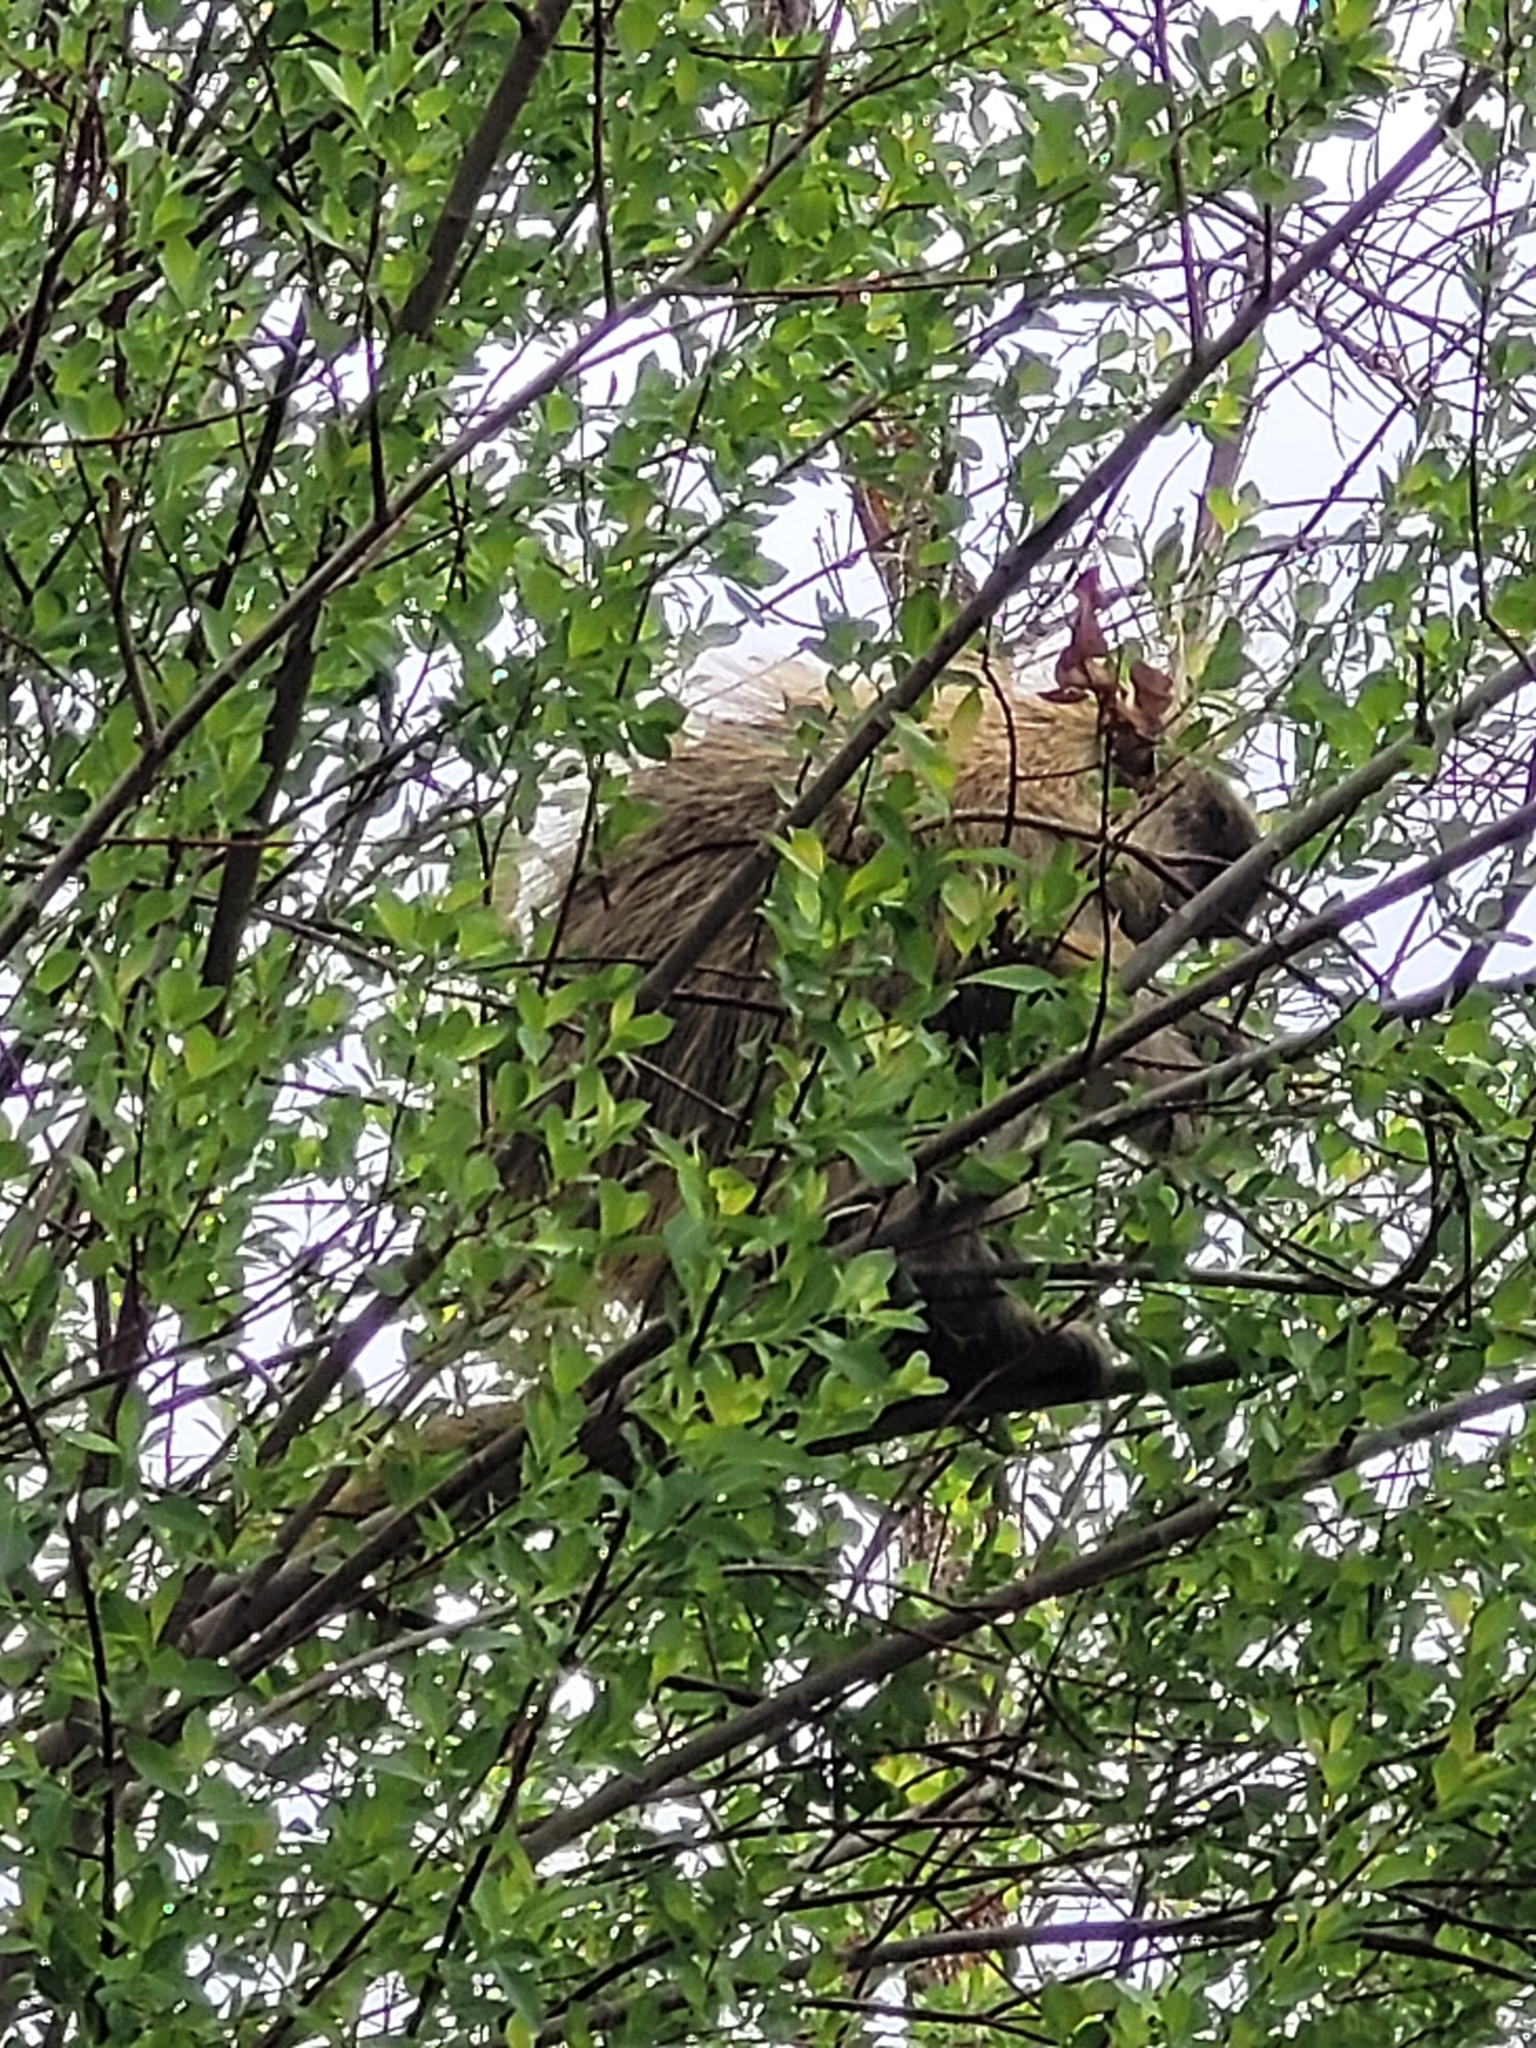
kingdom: Animalia
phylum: Chordata
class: Mammalia
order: Rodentia
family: Erethizontidae
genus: Erethizon
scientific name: Erethizon dorsatus
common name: North american porcupine
